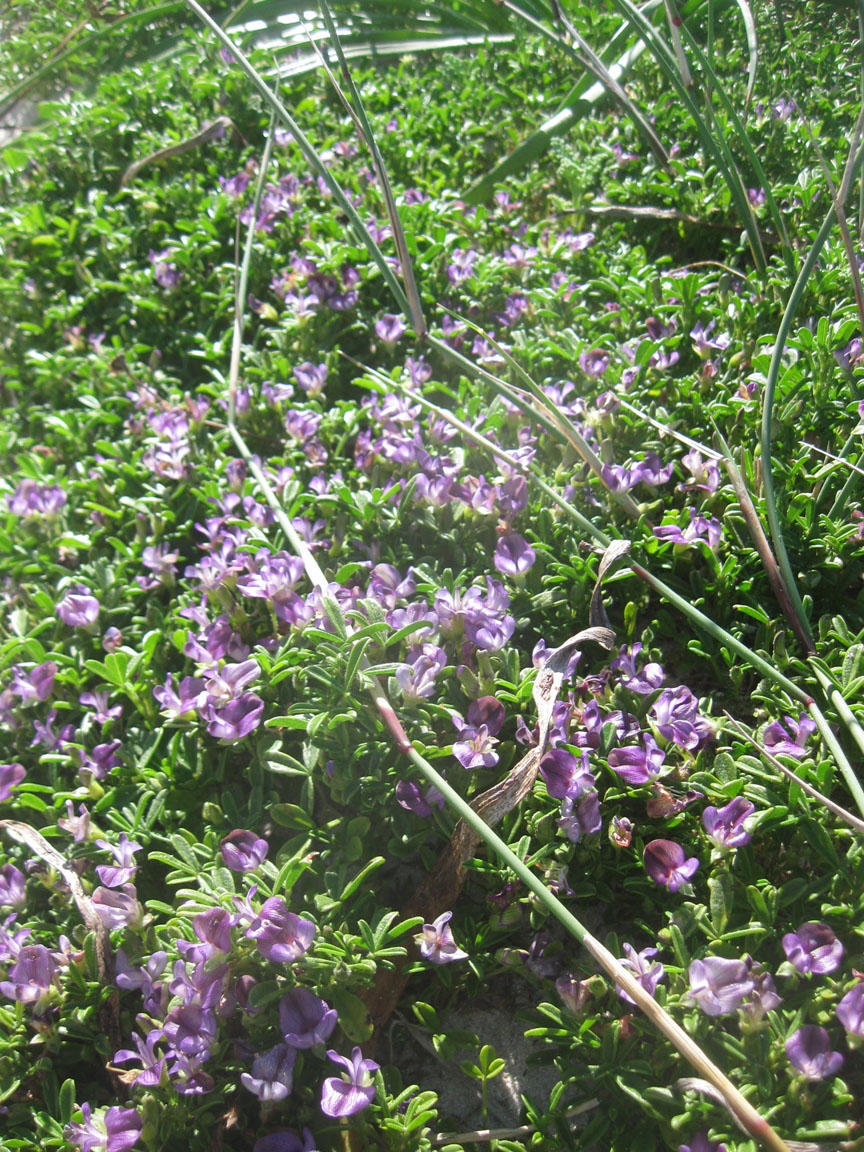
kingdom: Plantae
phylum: Tracheophyta
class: Magnoliopsida
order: Fabales
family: Fabaceae
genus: Psoralea
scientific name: Psoralea repens
